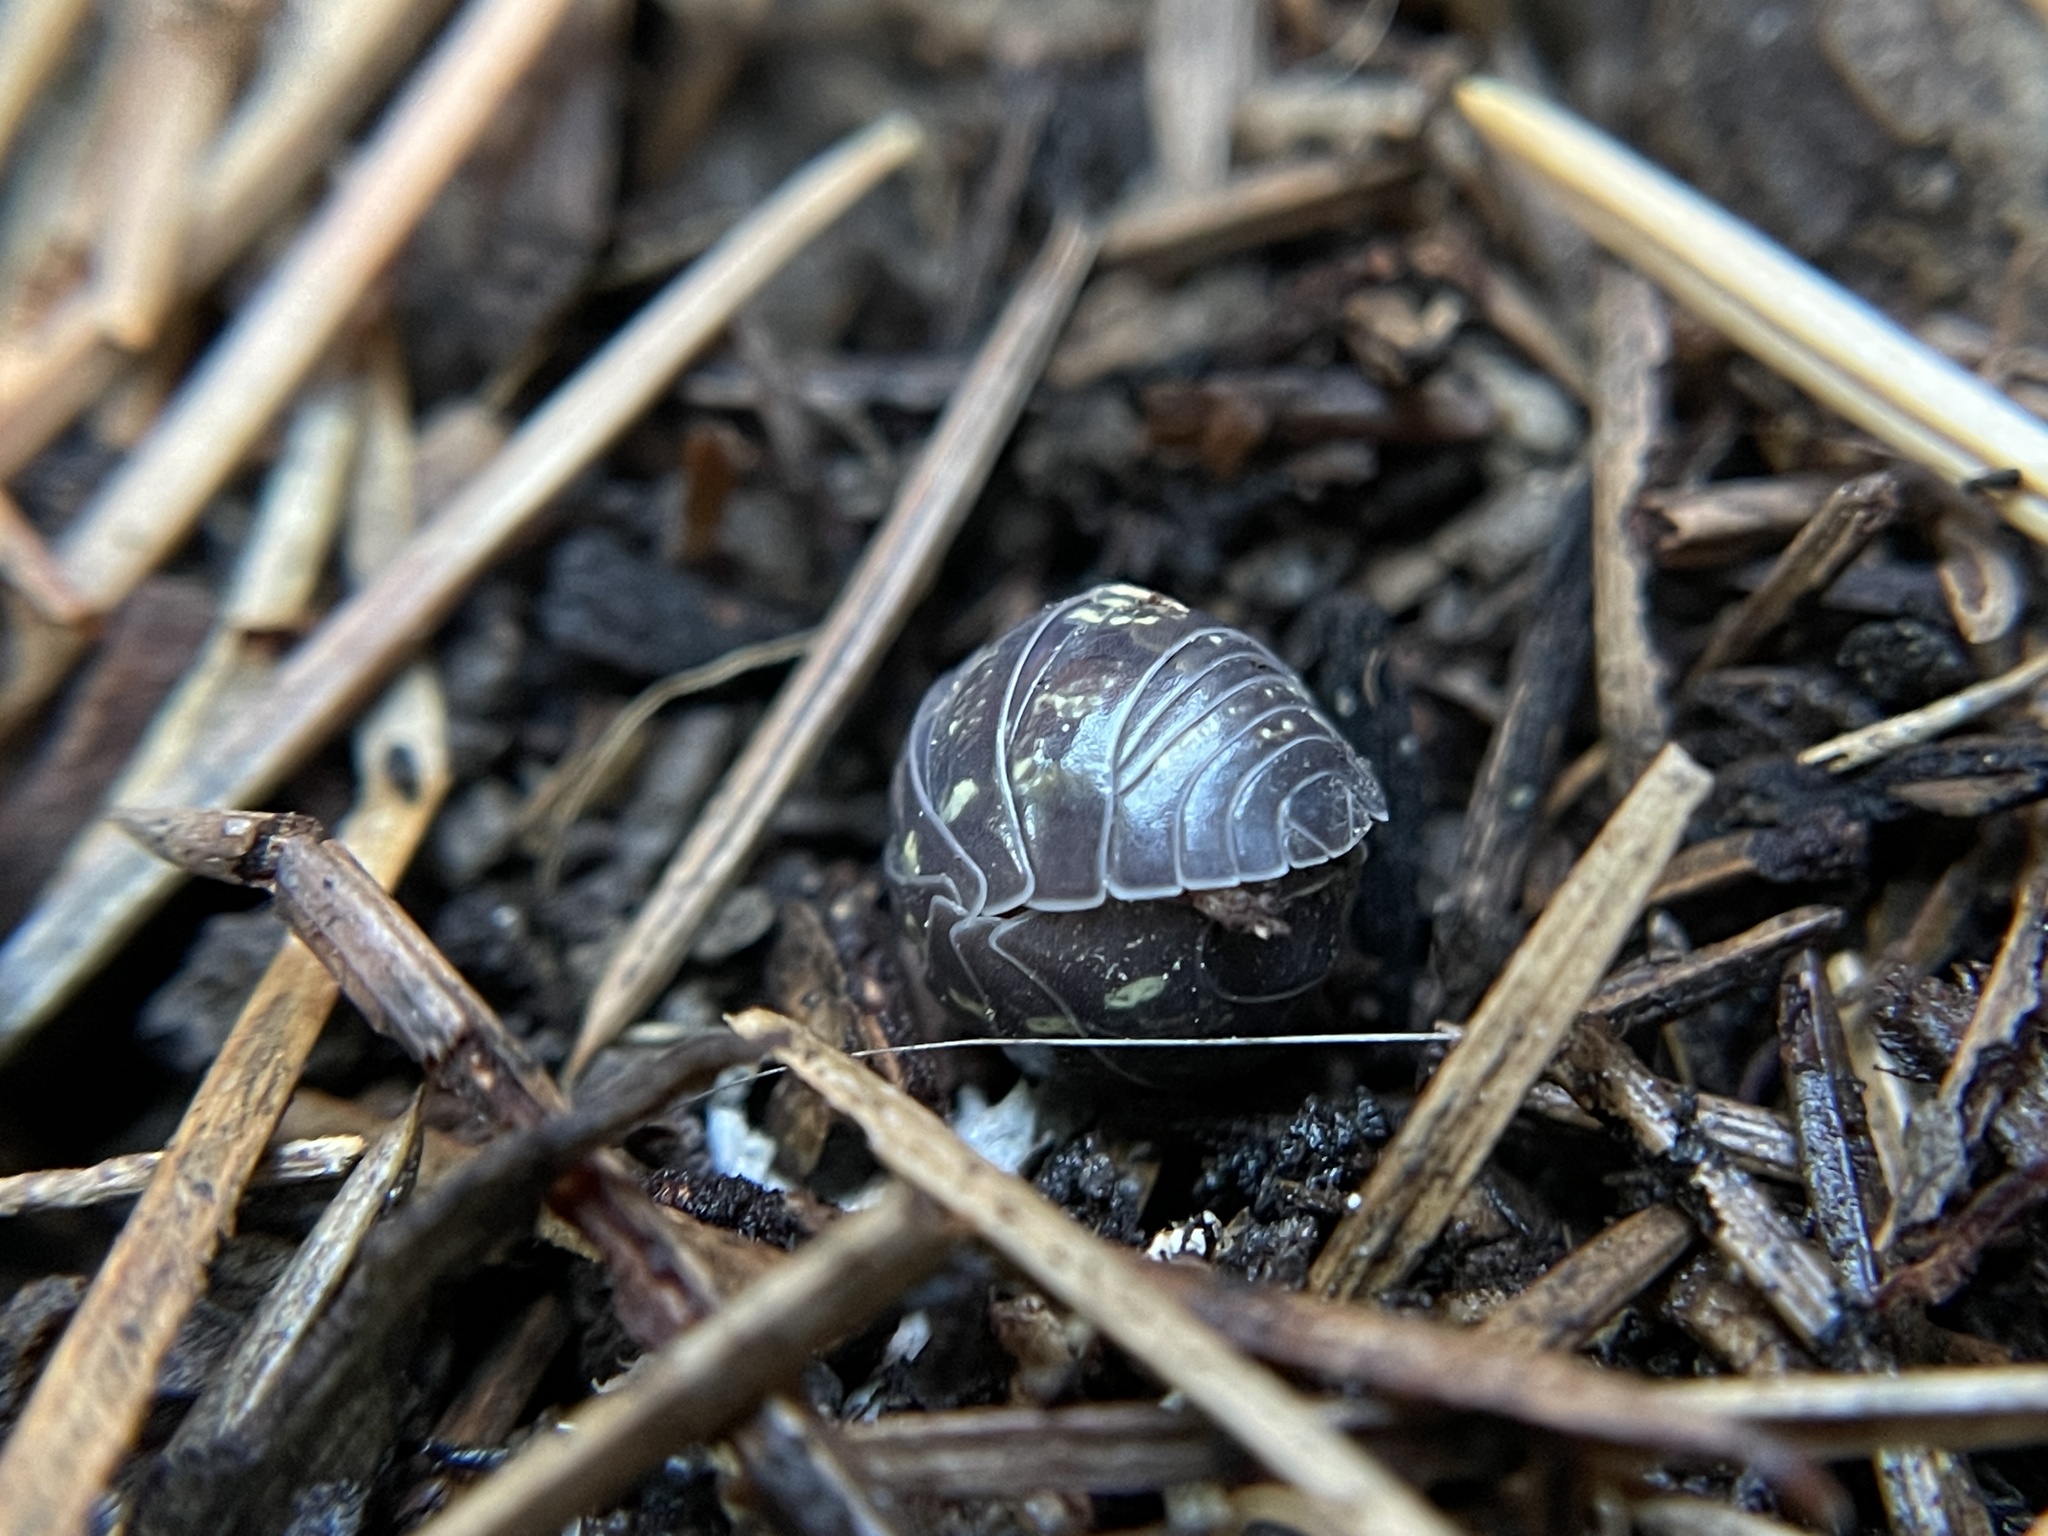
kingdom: Animalia
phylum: Arthropoda
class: Malacostraca
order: Isopoda
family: Armadillidiidae
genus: Armadillidium
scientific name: Armadillidium vulgare
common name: Common pill woodlouse
